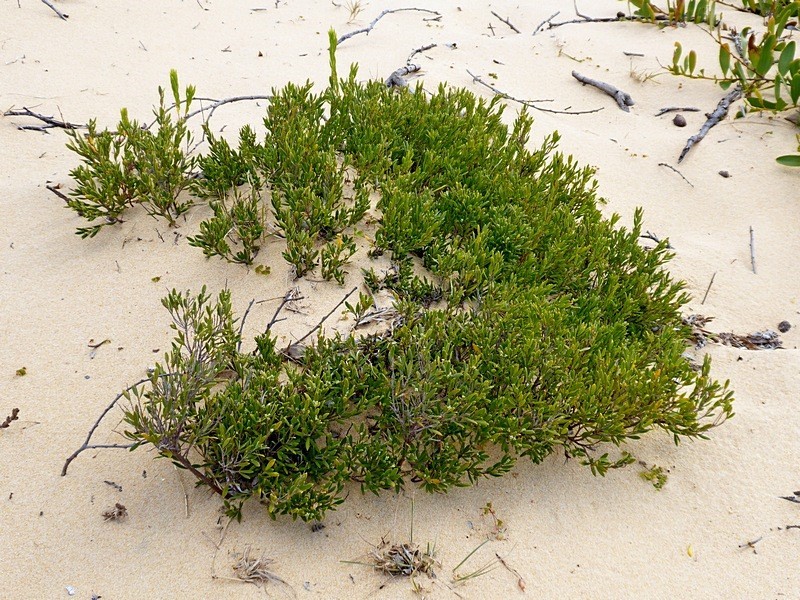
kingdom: Plantae
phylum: Tracheophyta
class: Magnoliopsida
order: Ericales
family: Ericaceae
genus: Leptecophylla
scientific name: Leptecophylla parvifolia
